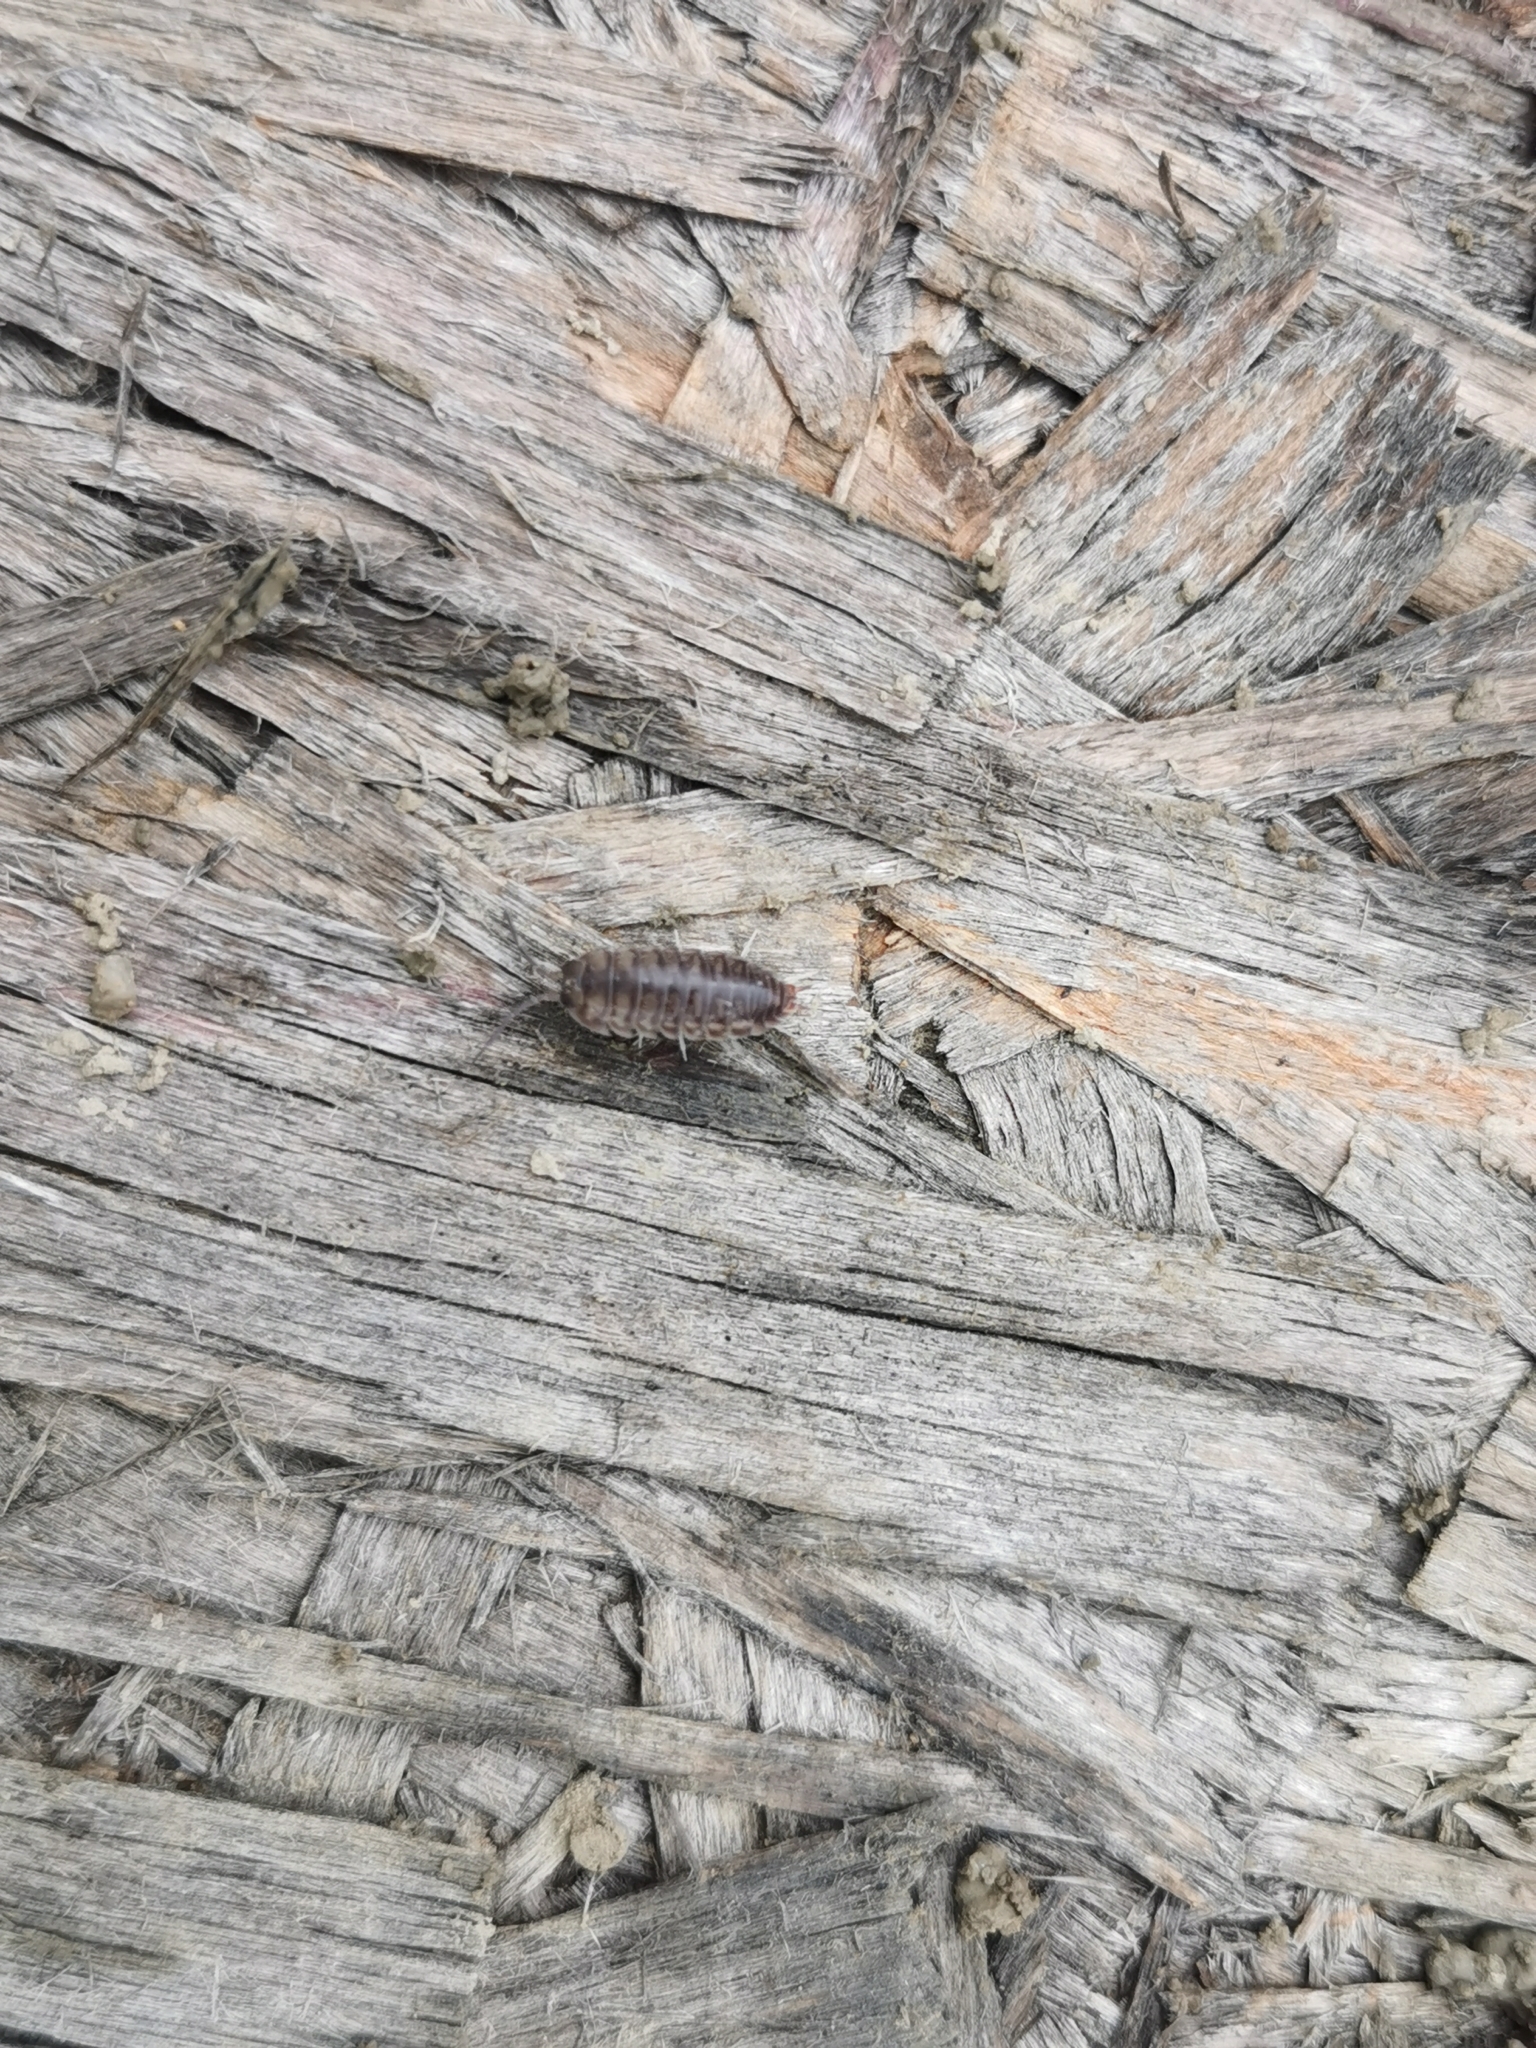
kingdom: Animalia
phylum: Arthropoda
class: Malacostraca
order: Isopoda
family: Cylisticidae
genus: Cylisticus
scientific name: Cylisticus convexus
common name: Curly woodlouse
